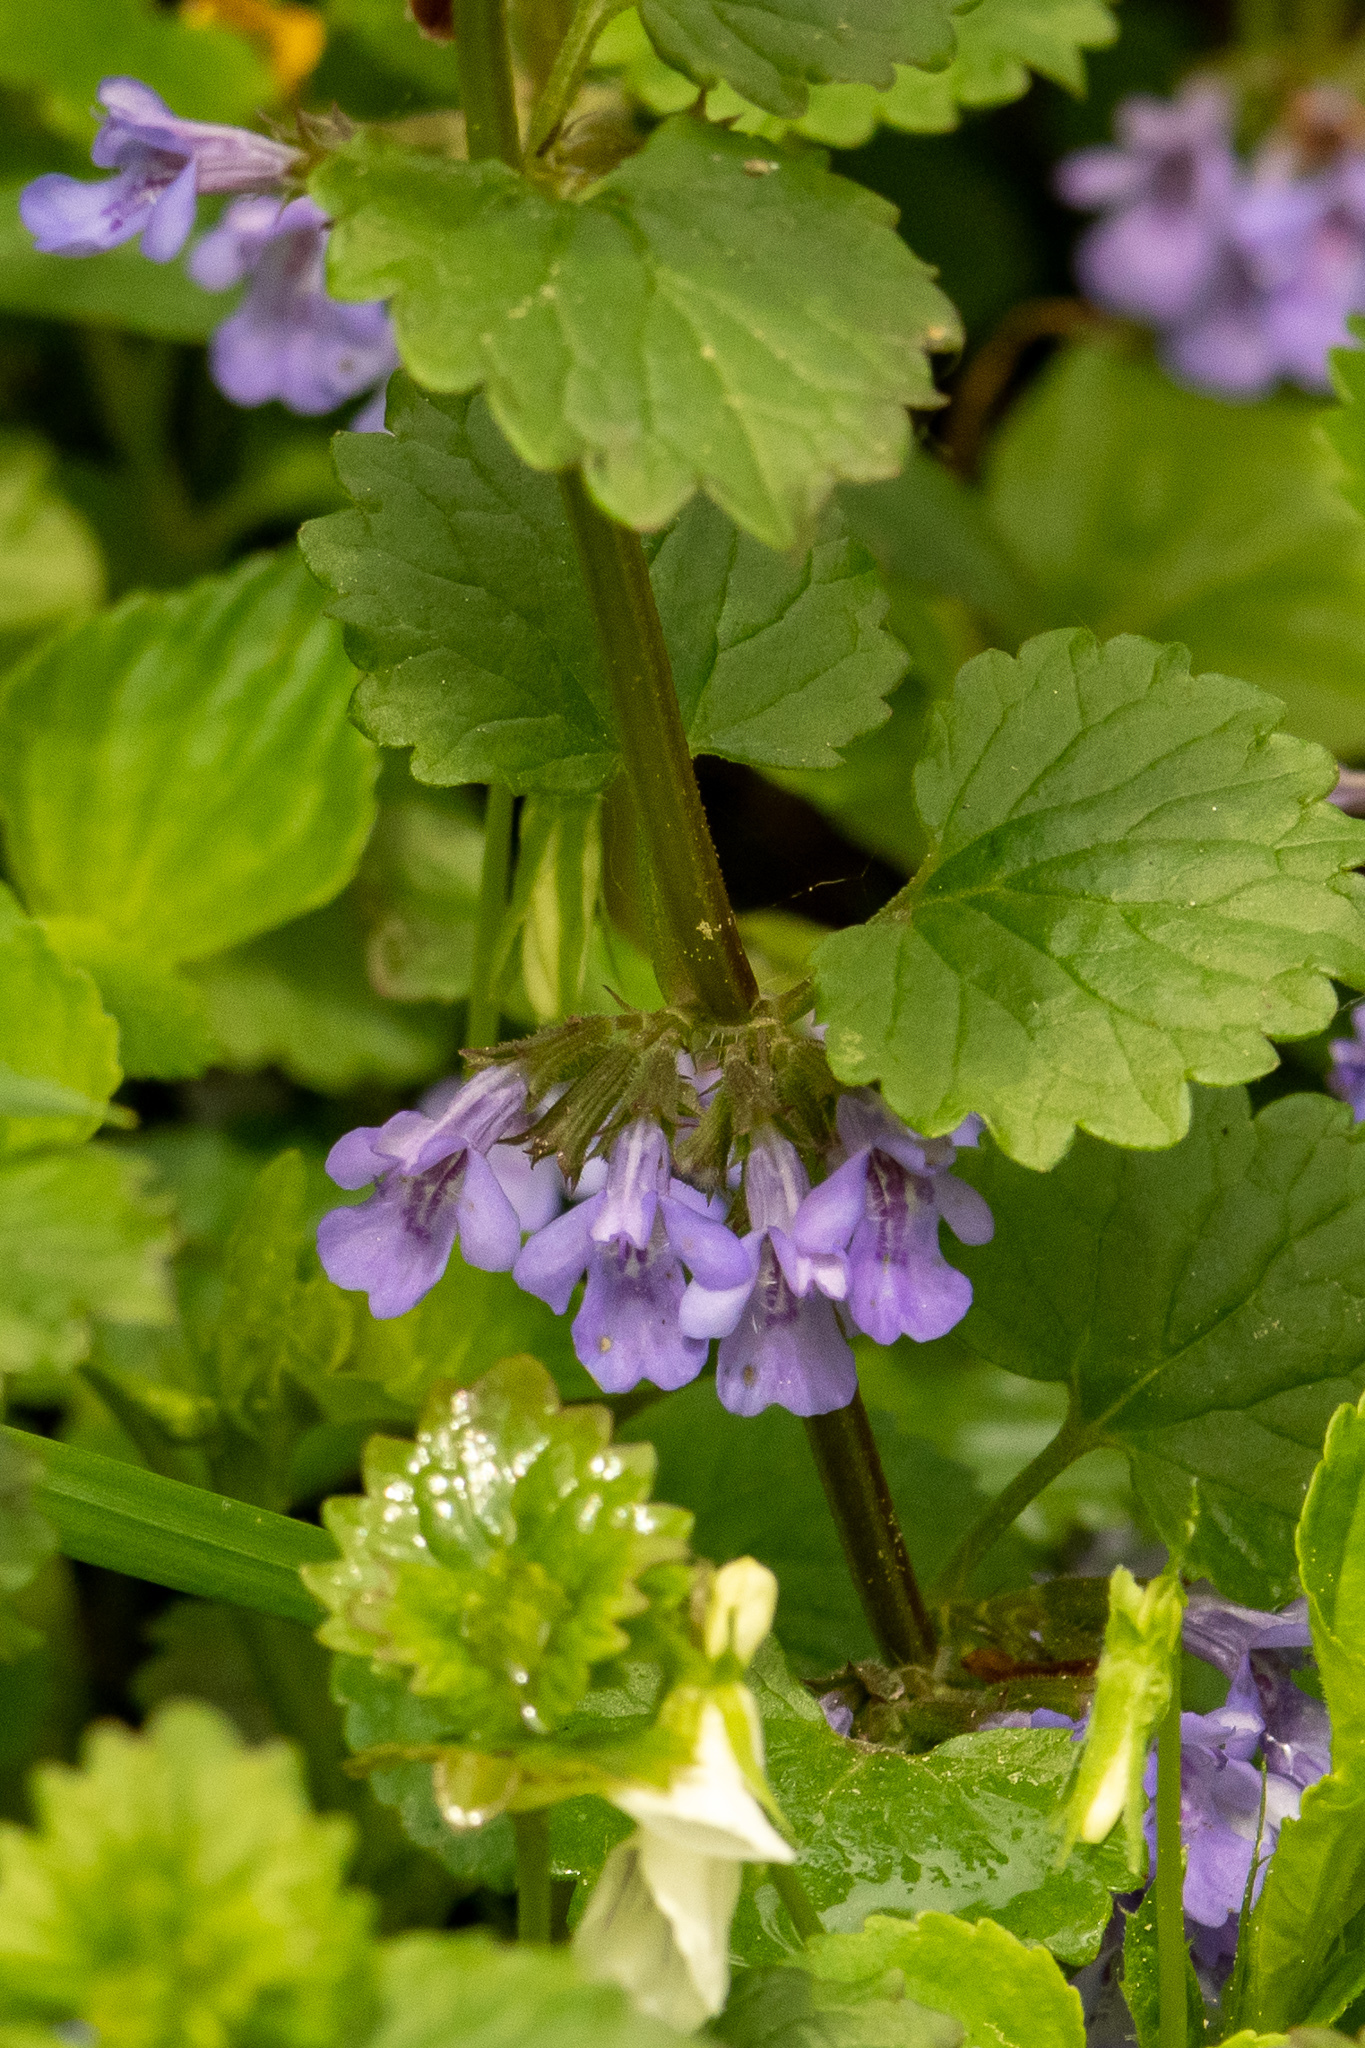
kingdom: Plantae
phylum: Tracheophyta
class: Magnoliopsida
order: Lamiales
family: Lamiaceae
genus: Glechoma
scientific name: Glechoma hederacea
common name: Ground ivy
